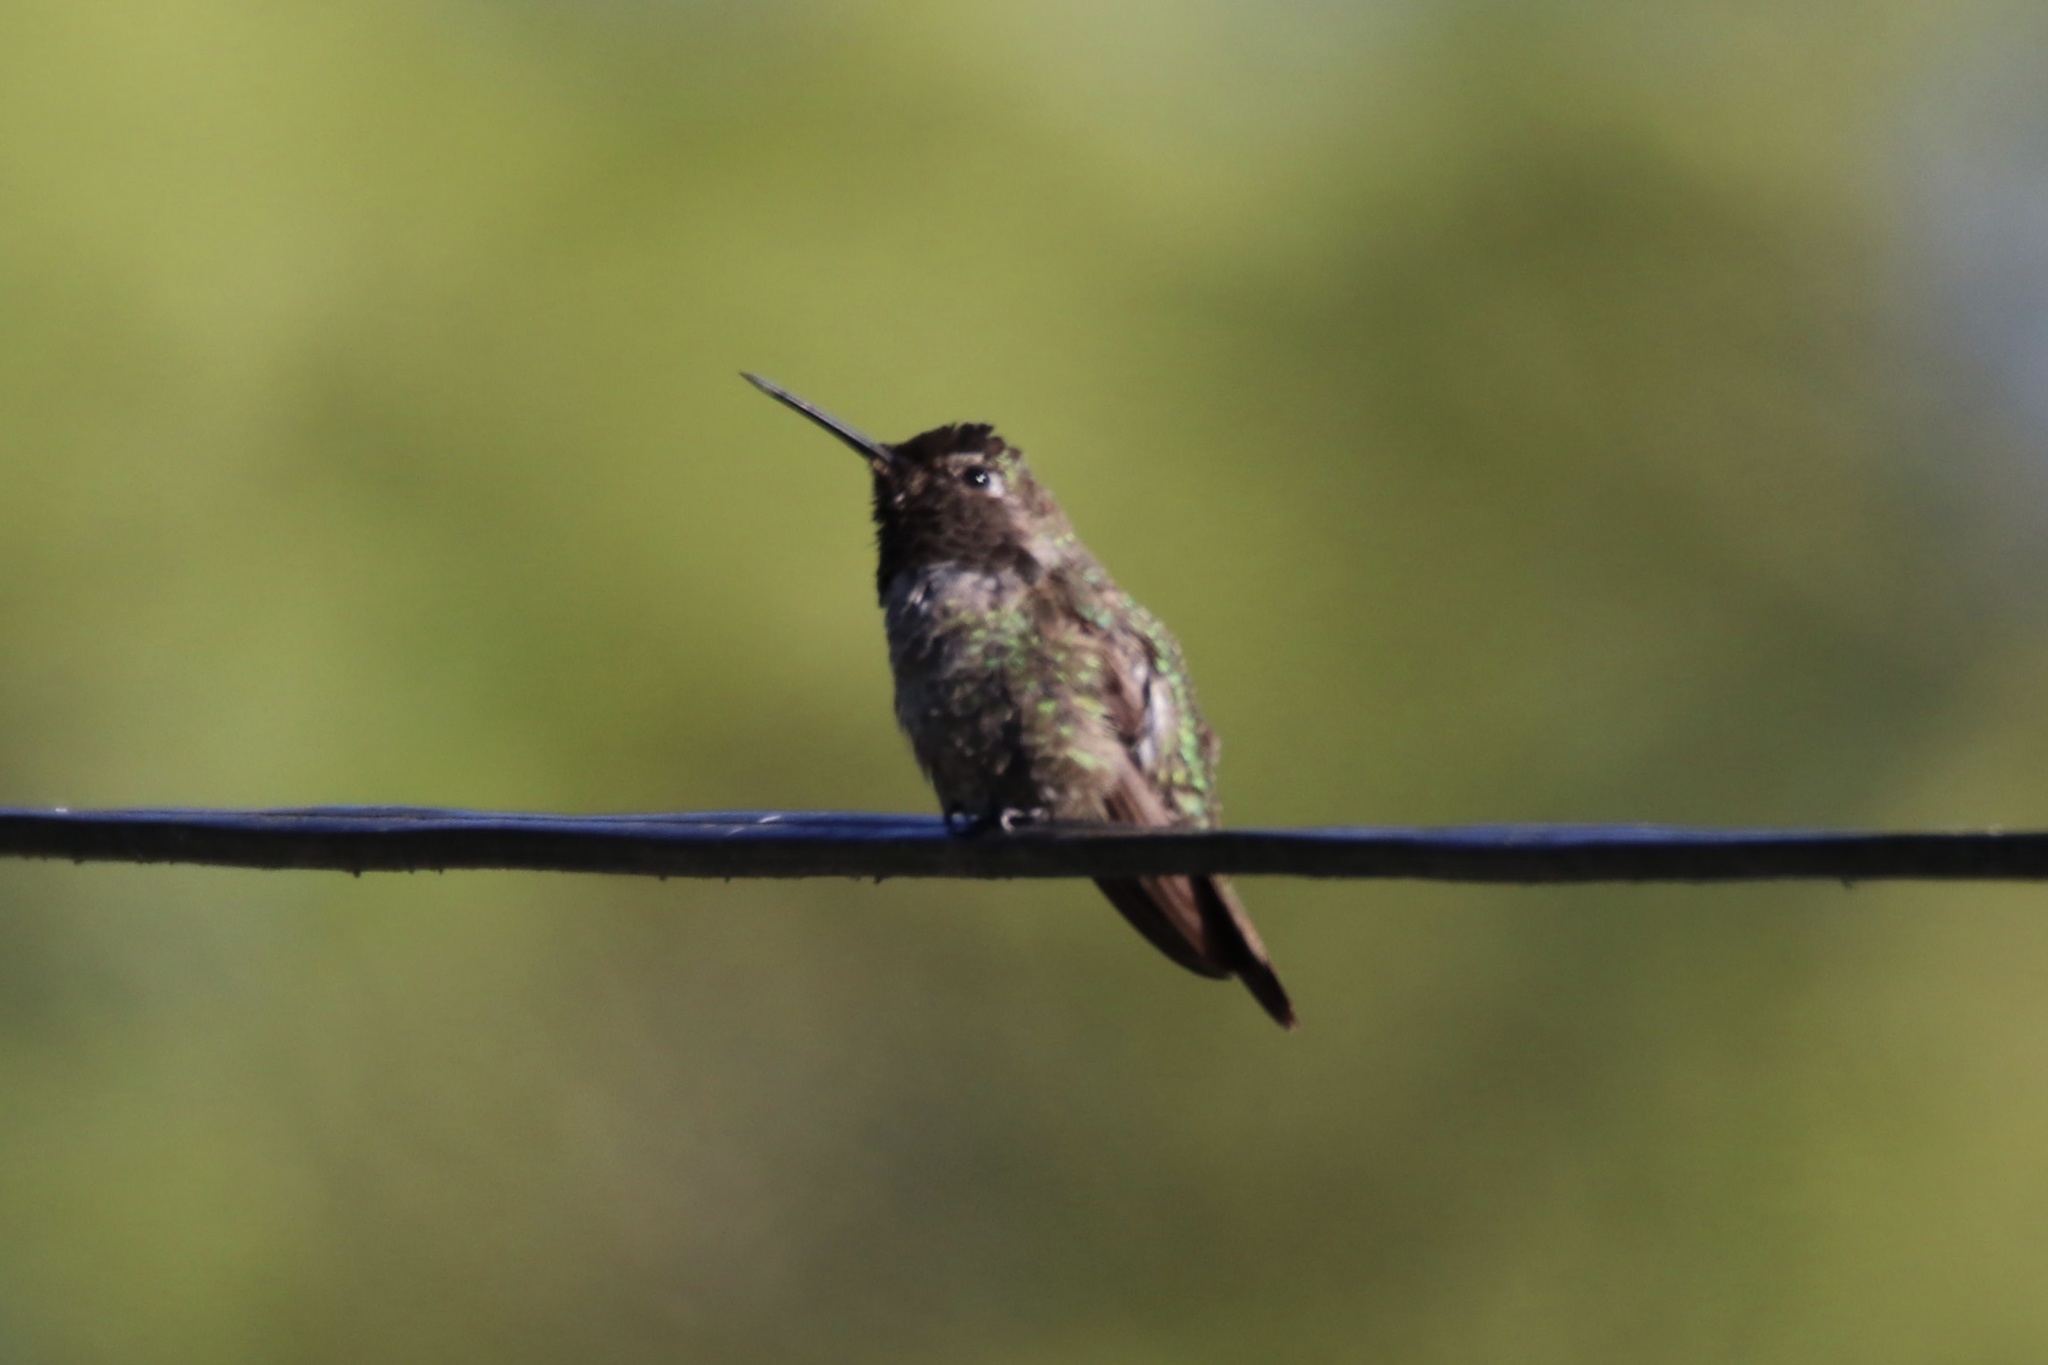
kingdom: Animalia
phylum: Chordata
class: Aves
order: Apodiformes
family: Trochilidae
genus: Calypte
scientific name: Calypte anna
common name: Anna's hummingbird
